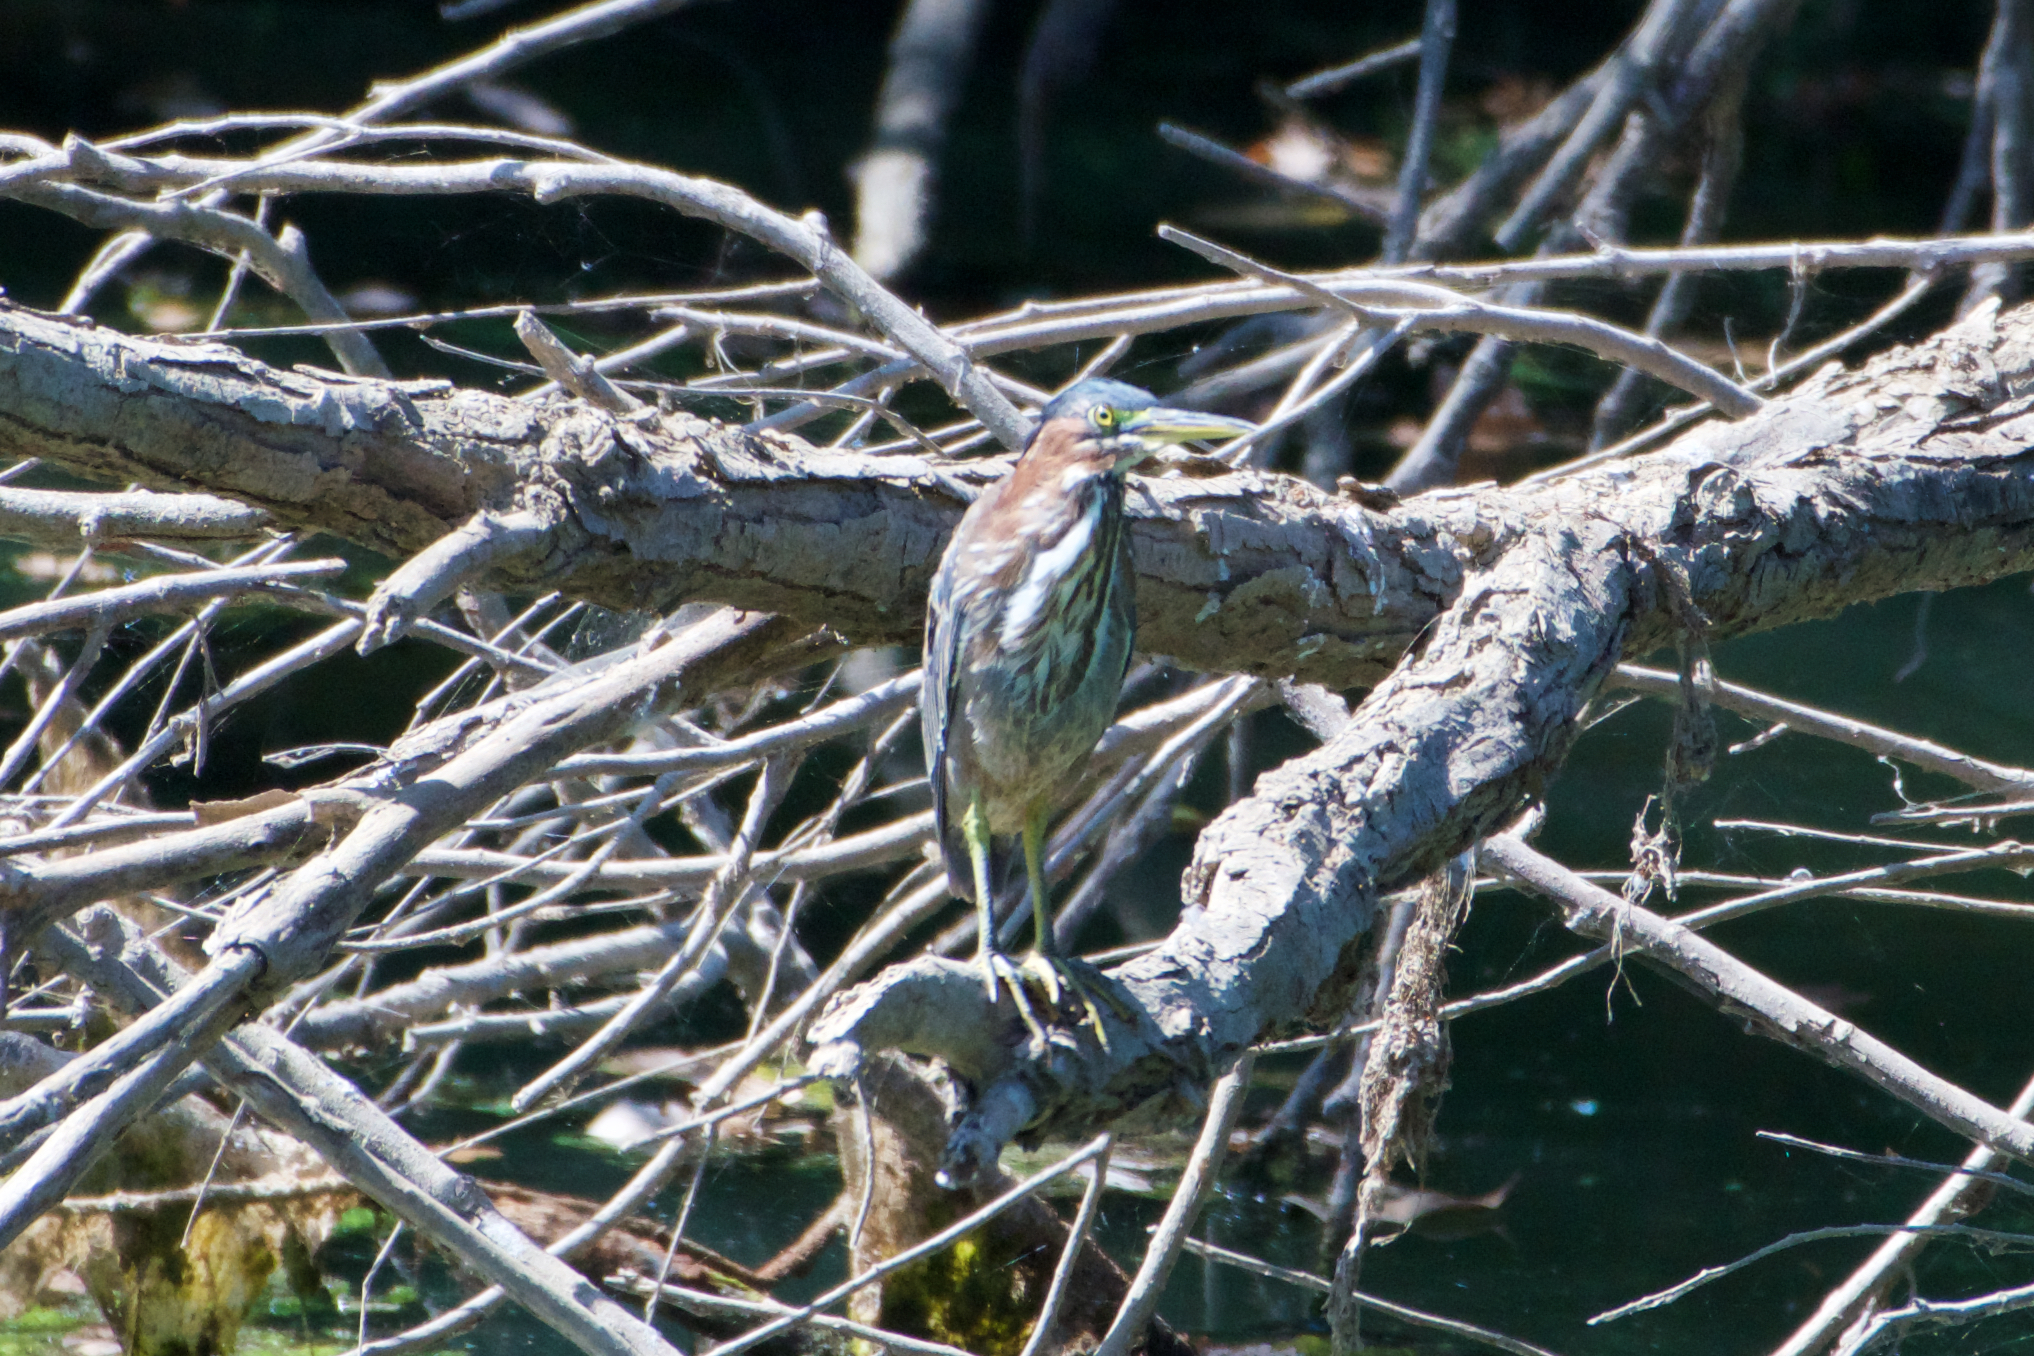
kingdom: Animalia
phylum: Chordata
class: Aves
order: Pelecaniformes
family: Ardeidae
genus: Butorides
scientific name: Butorides virescens
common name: Green heron
